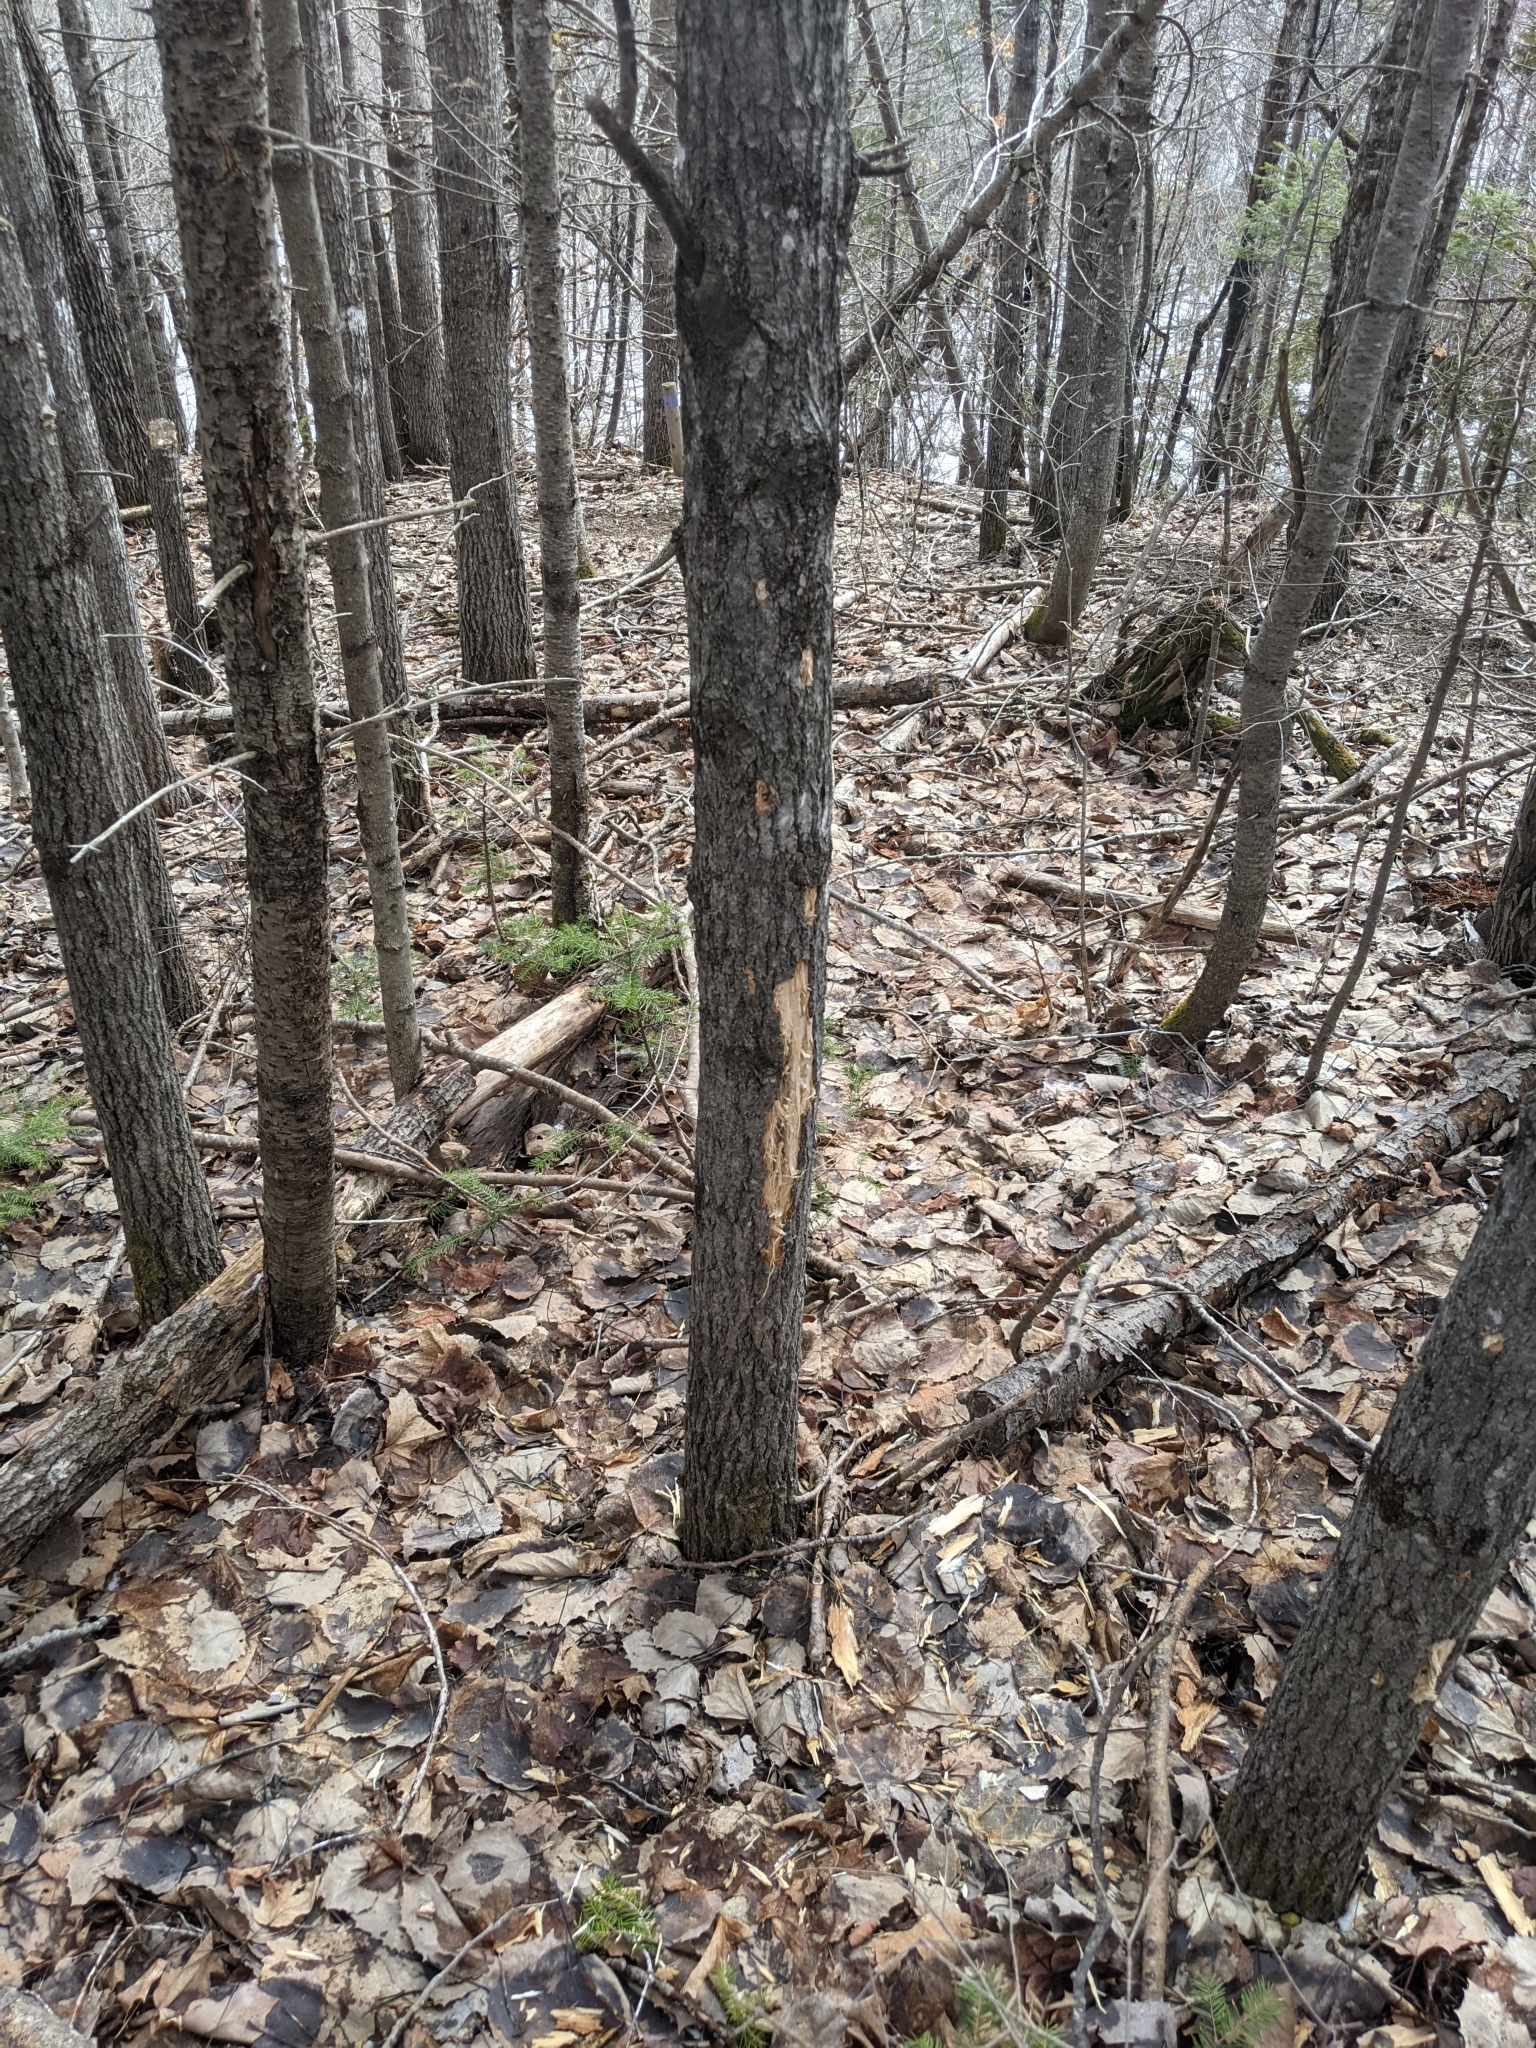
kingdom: Animalia
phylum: Chordata
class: Mammalia
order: Artiodactyla
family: Cervidae
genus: Odocoileus
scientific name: Odocoileus virginianus
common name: White-tailed deer
